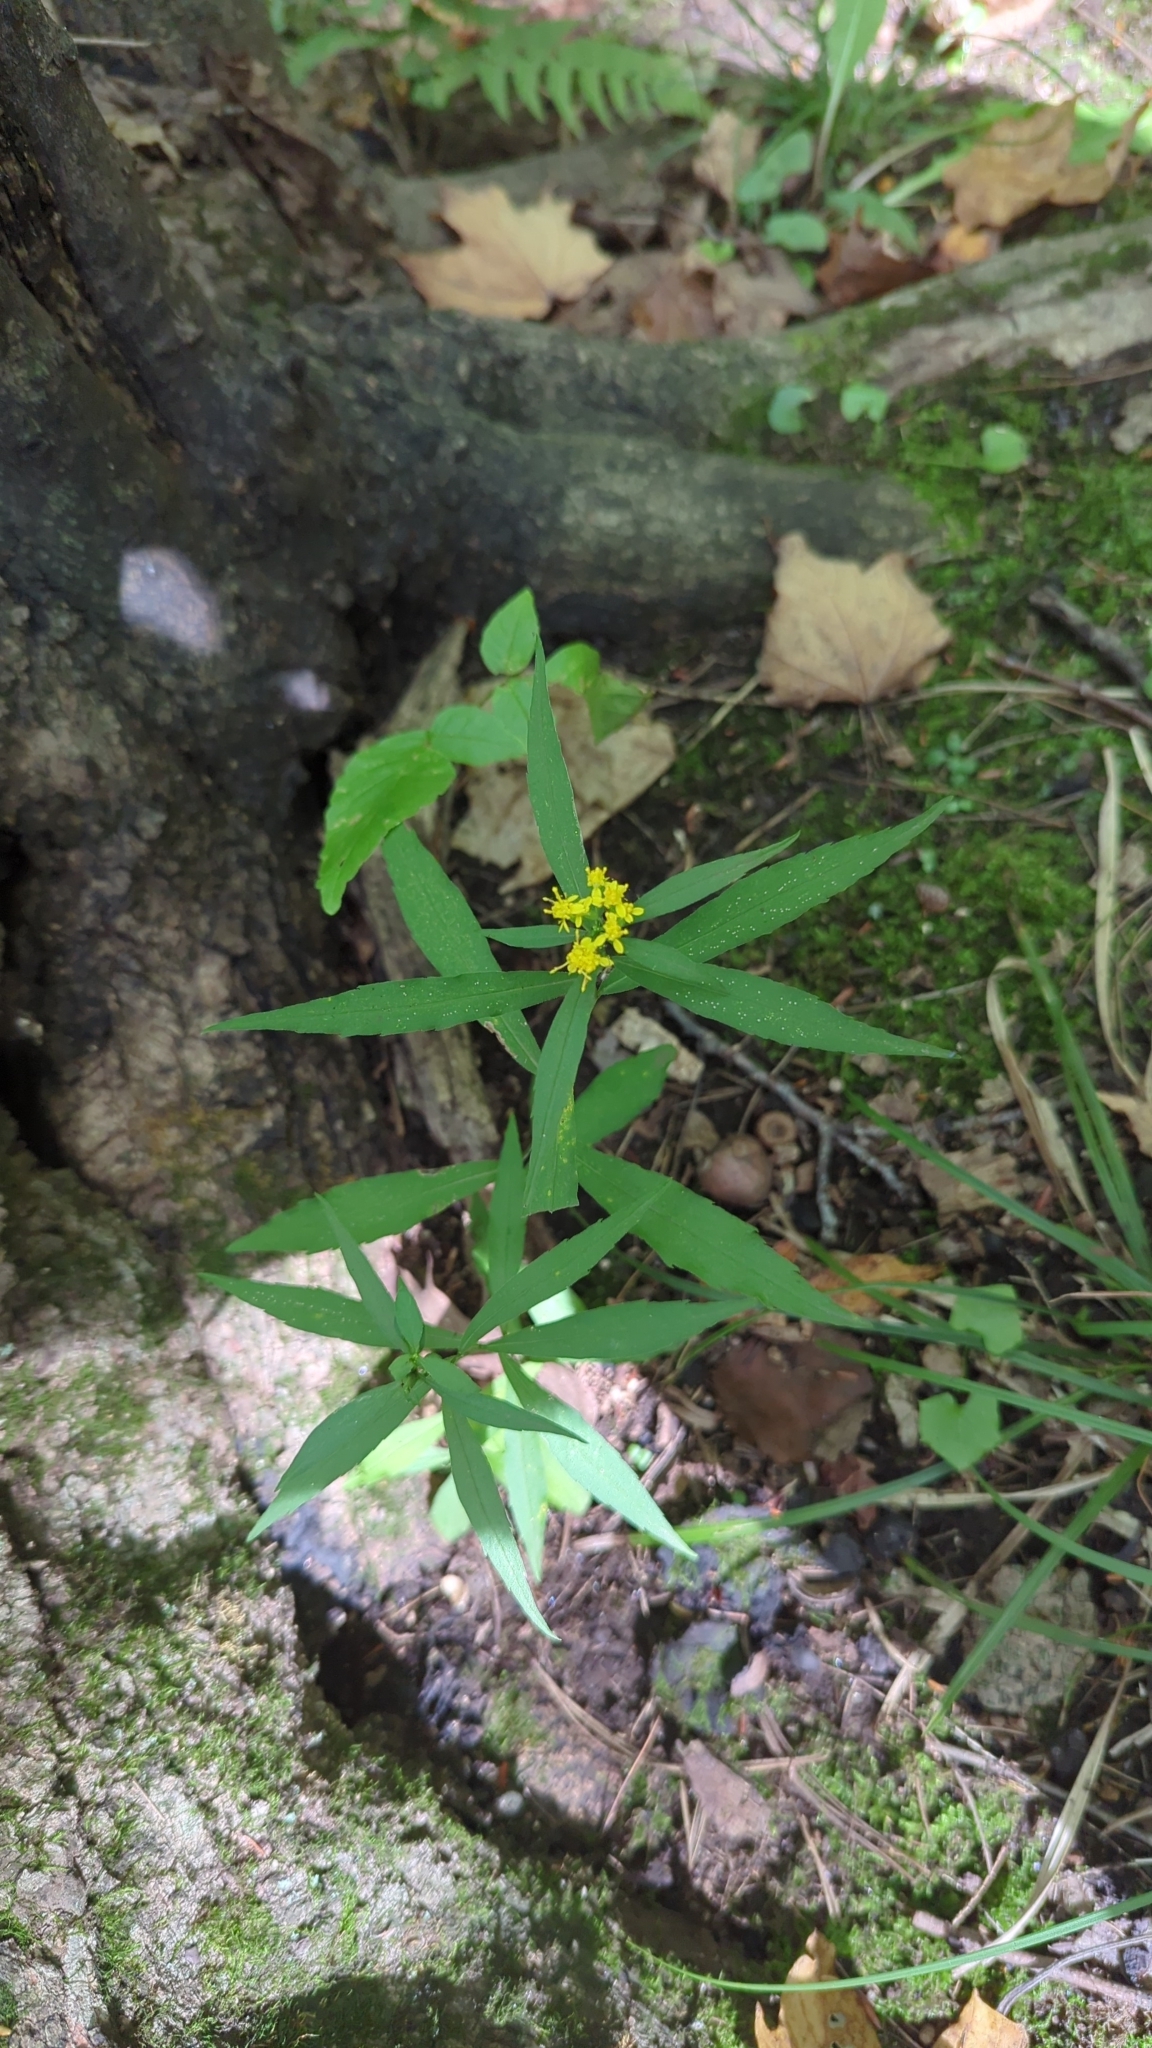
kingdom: Plantae
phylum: Tracheophyta
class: Magnoliopsida
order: Asterales
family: Asteraceae
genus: Solidago
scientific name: Solidago caesia
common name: Woodland goldenrod
